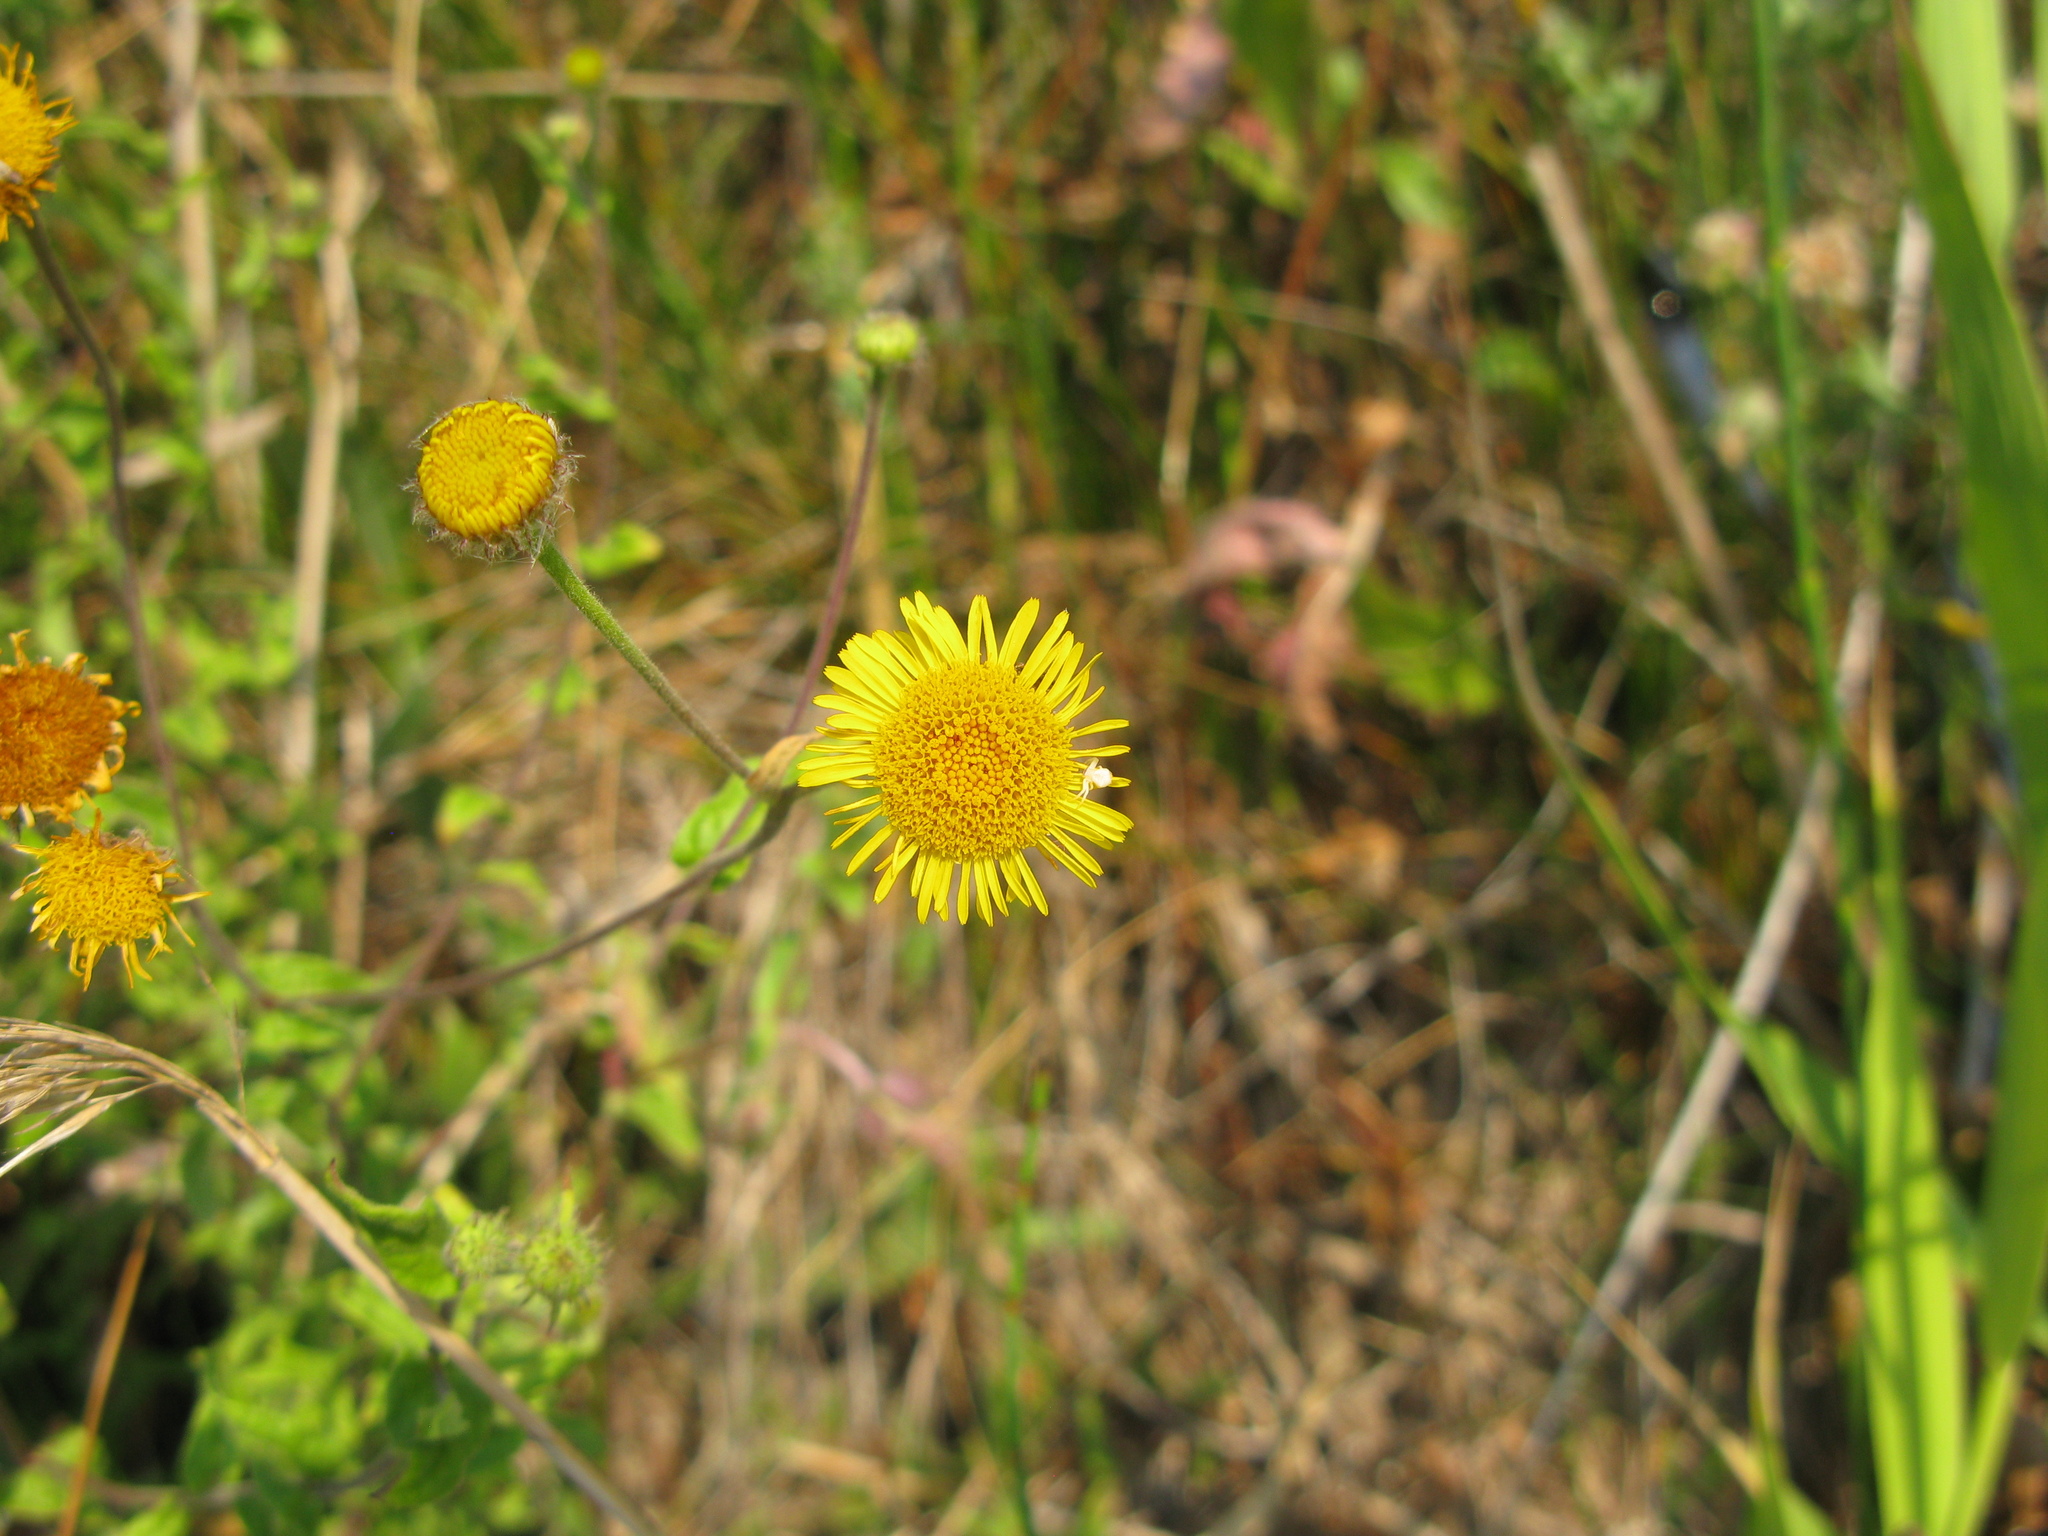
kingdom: Plantae
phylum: Tracheophyta
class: Magnoliopsida
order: Asterales
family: Asteraceae
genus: Pulicaria
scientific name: Pulicaria dysenterica
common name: Common fleabane
